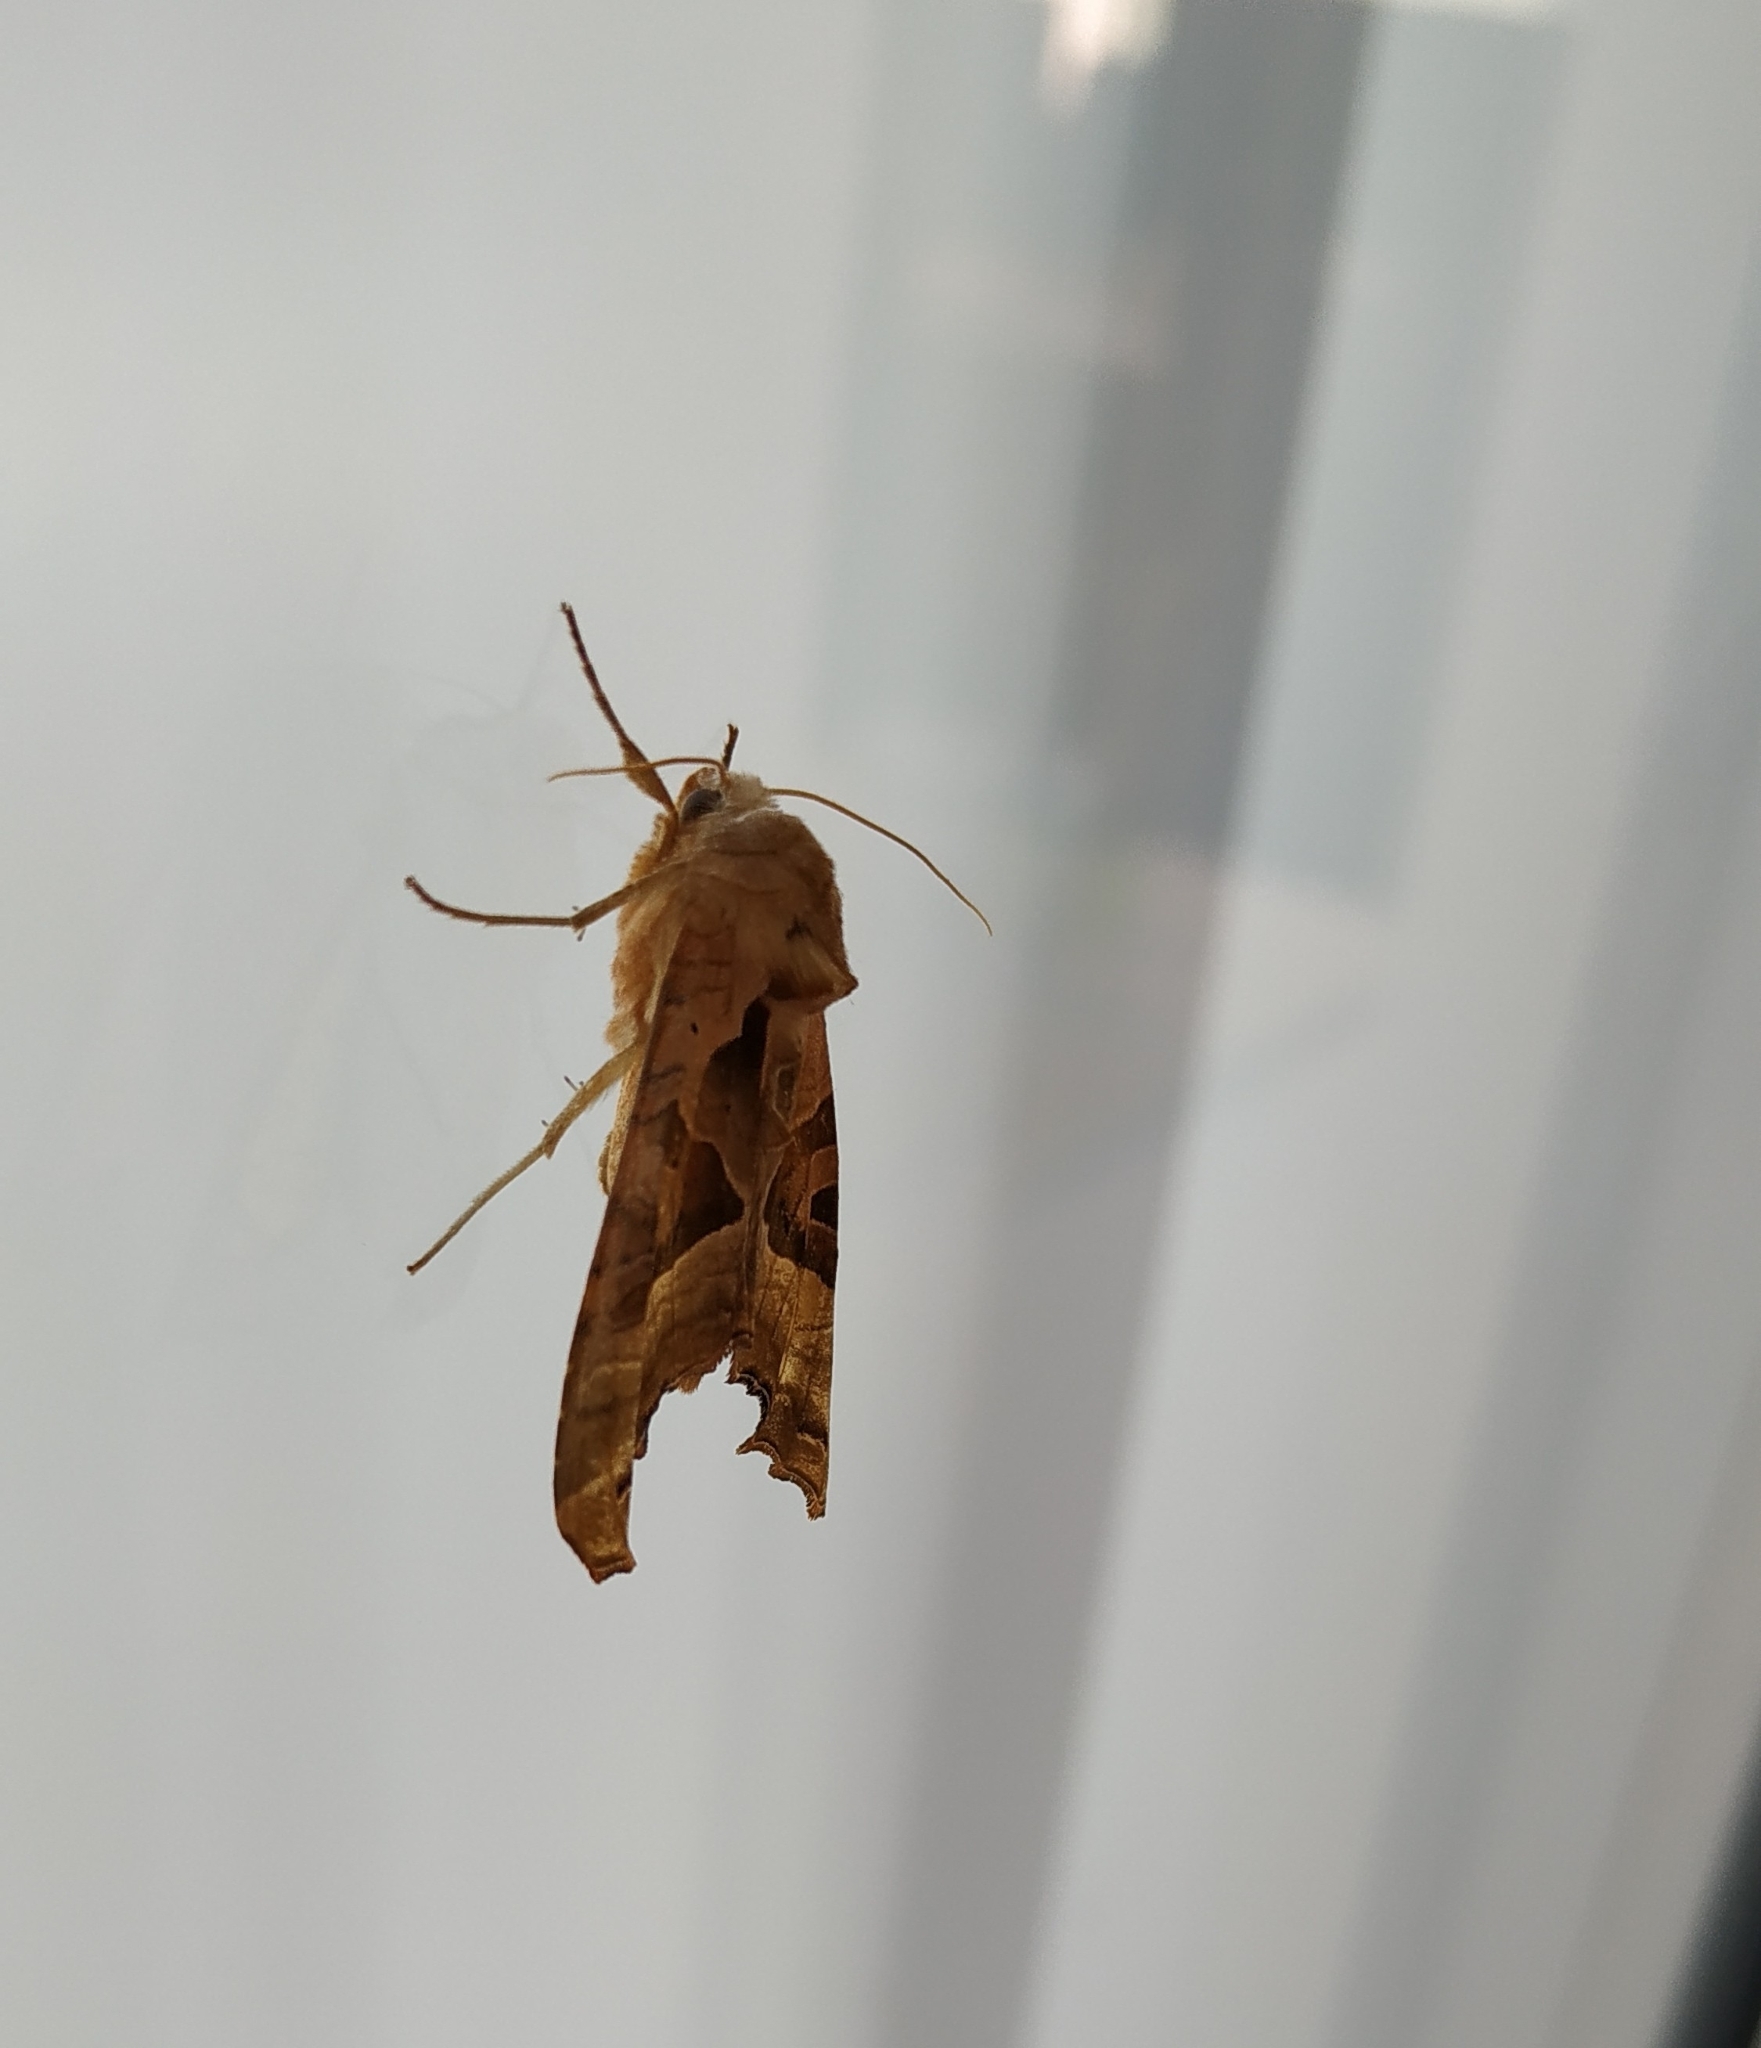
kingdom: Animalia
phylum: Arthropoda
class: Insecta
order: Lepidoptera
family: Noctuidae
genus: Phlogophora
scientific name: Phlogophora meticulosa
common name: Angle shades
